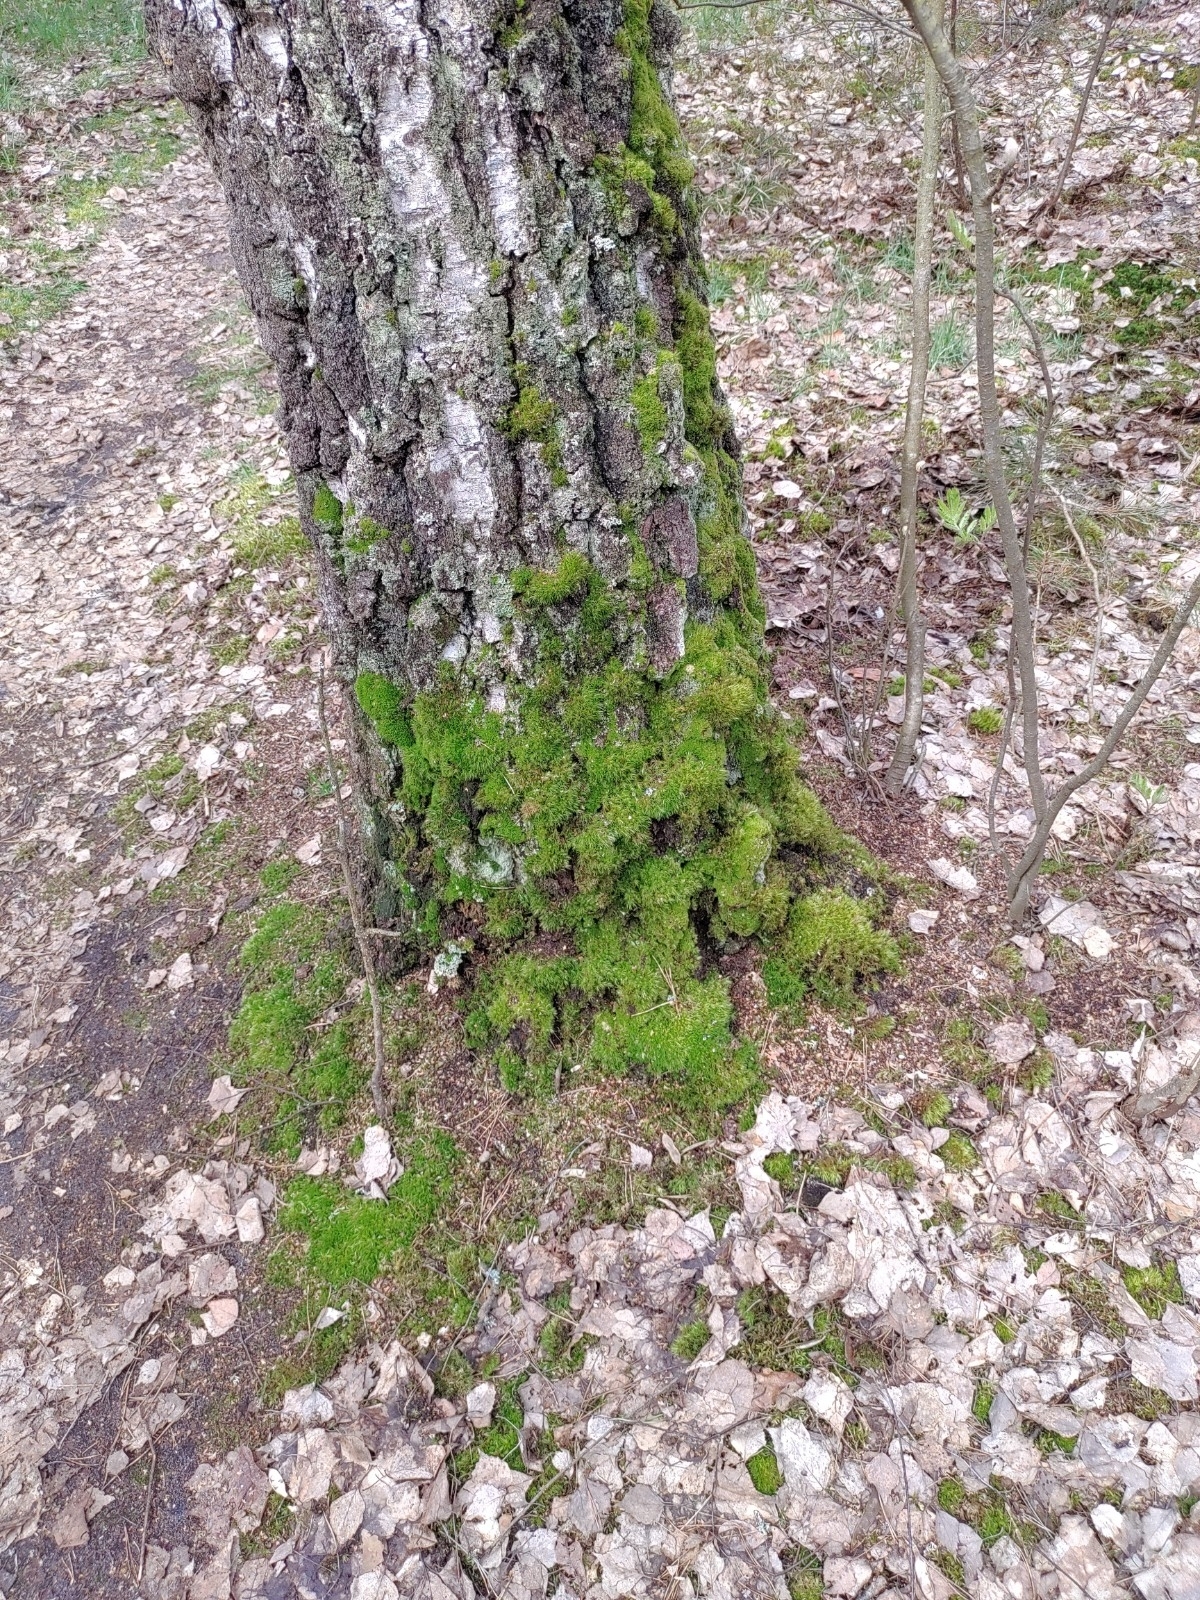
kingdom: Plantae
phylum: Bryophyta
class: Bryopsida
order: Dicranales
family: Dicranaceae
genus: Dicranum
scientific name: Dicranum scoparium
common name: Broom fork-moss
